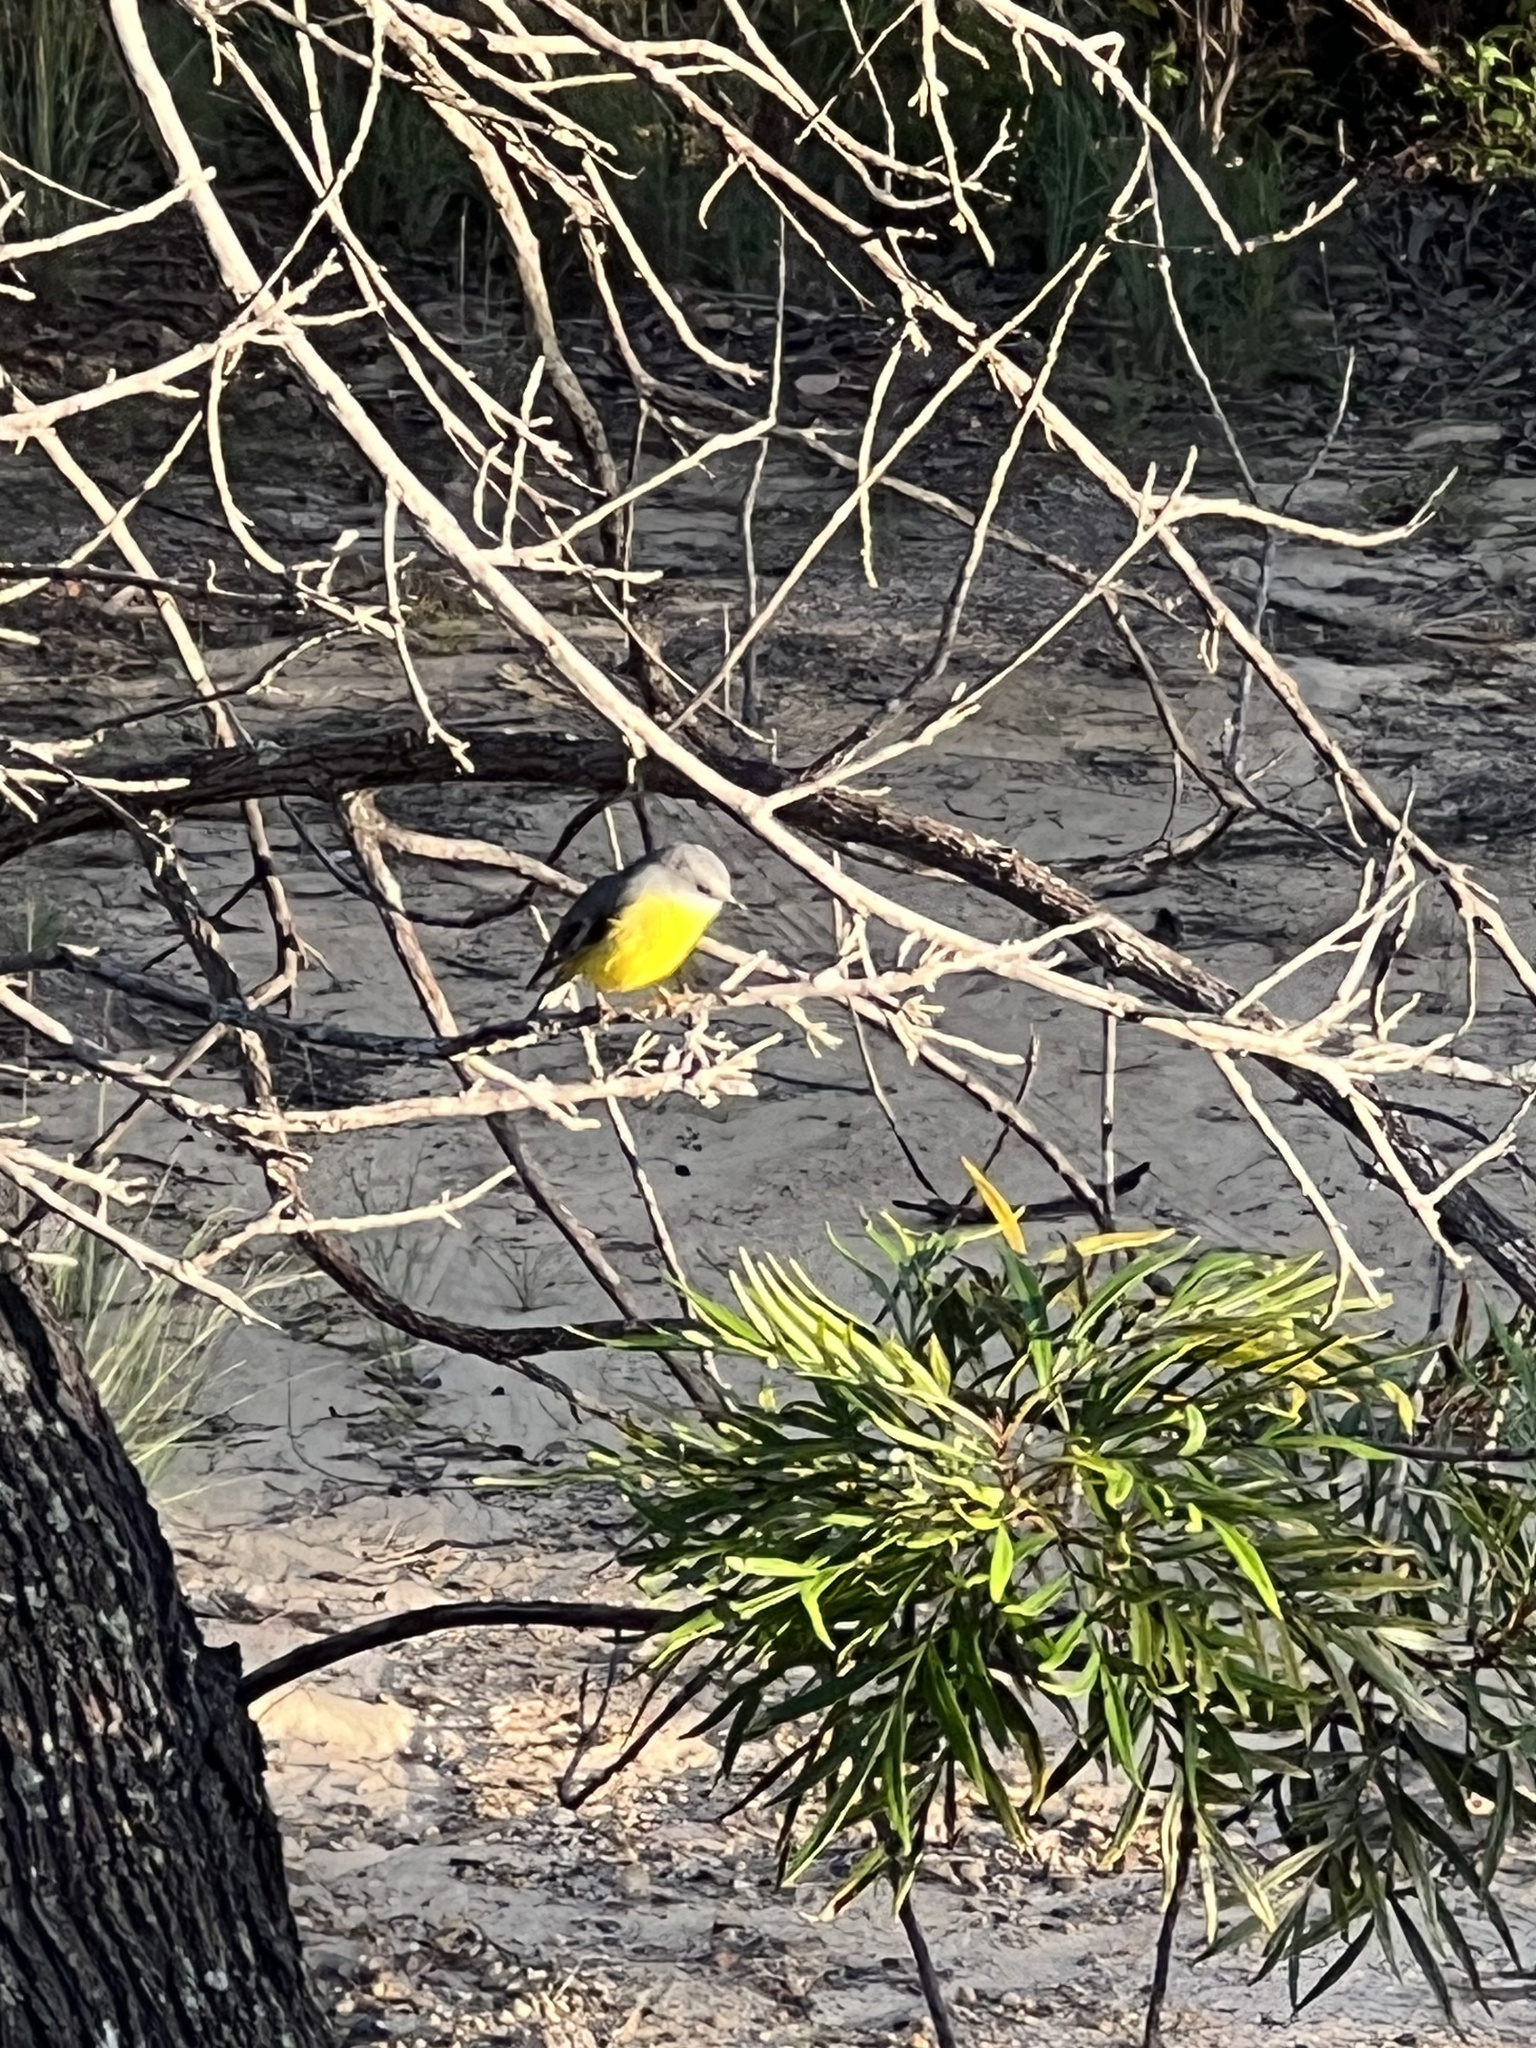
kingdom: Animalia
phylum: Chordata
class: Aves
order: Passeriformes
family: Petroicidae
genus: Eopsaltria
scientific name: Eopsaltria australis
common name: Eastern yellow robin
